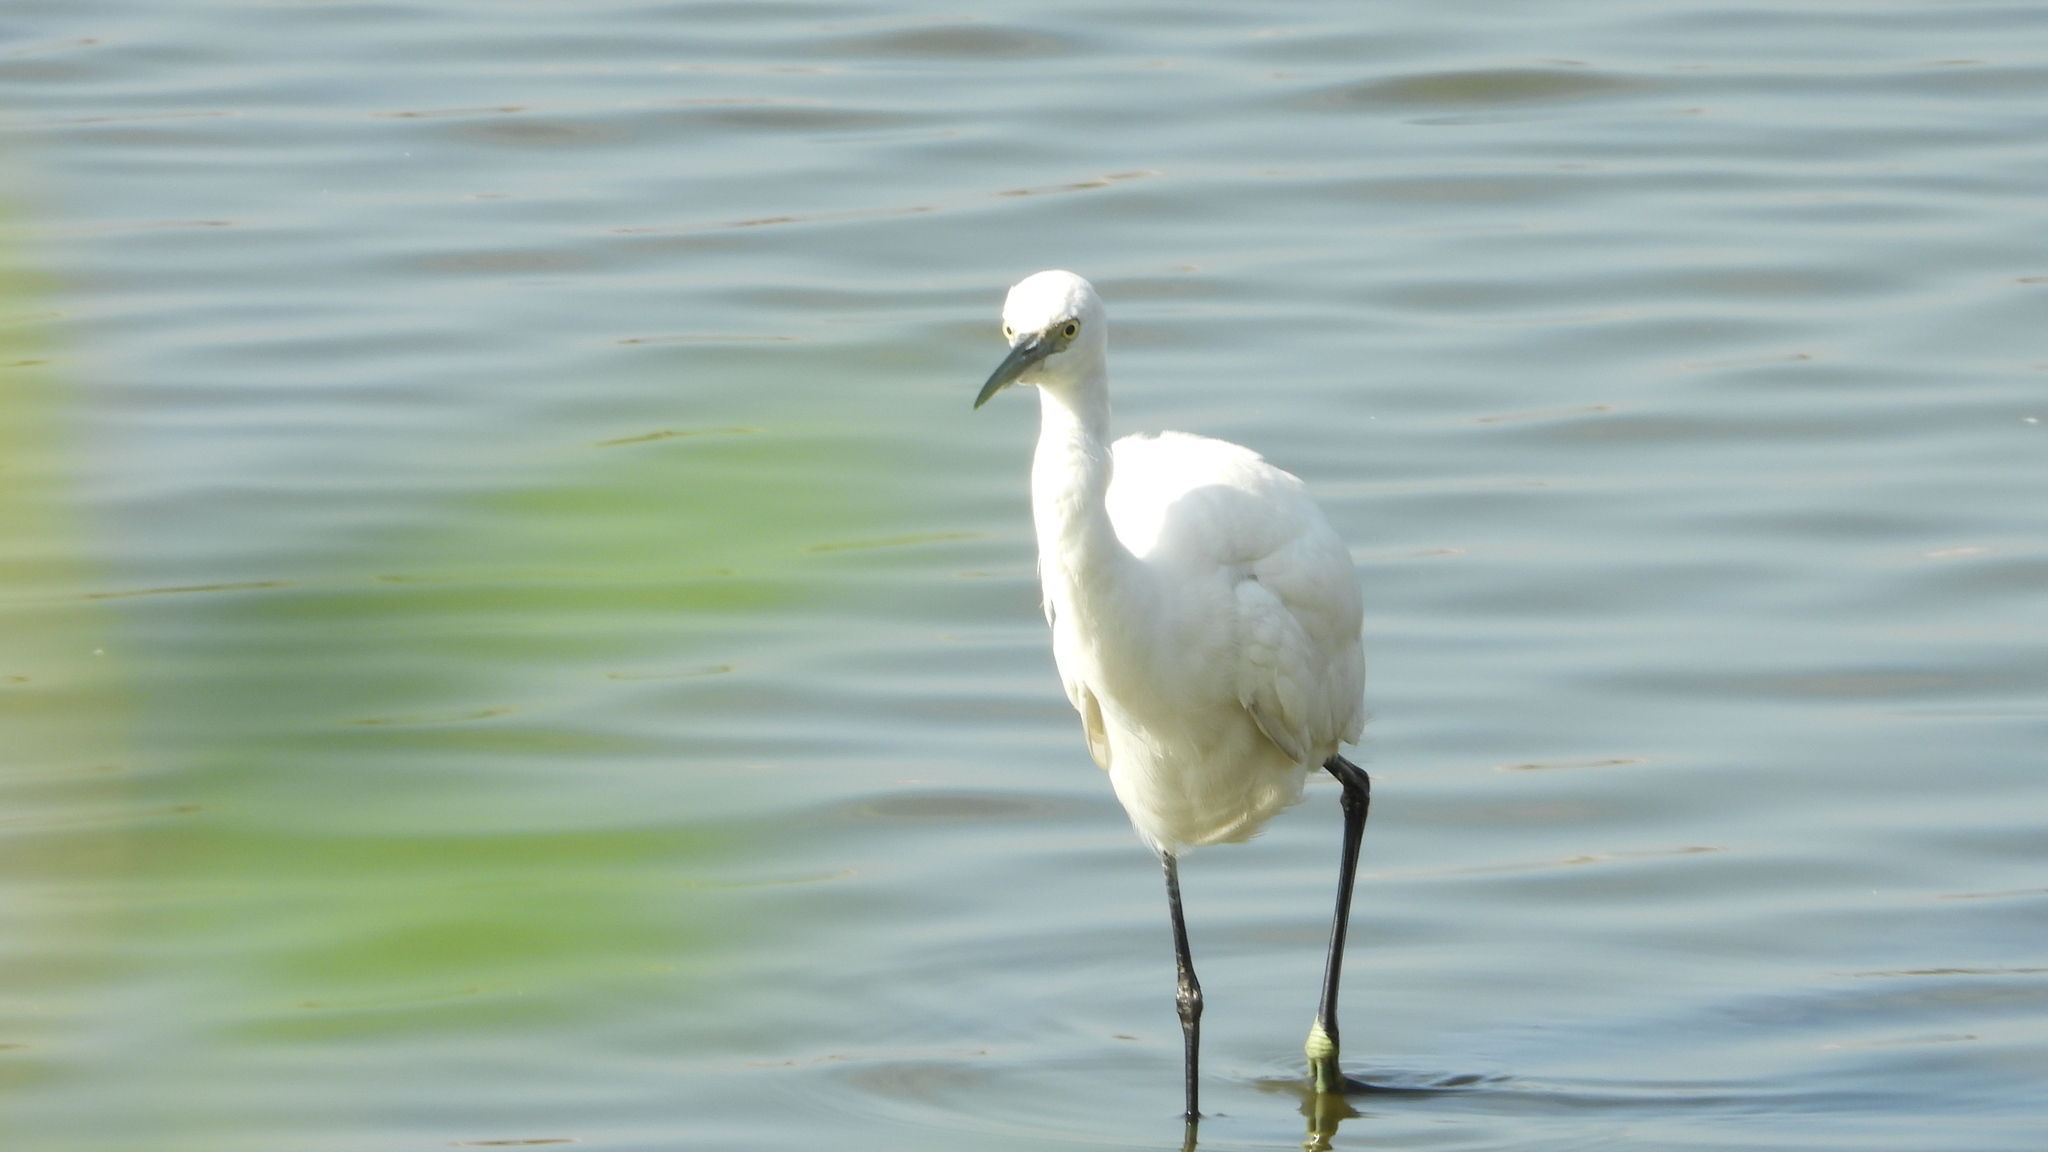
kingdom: Animalia
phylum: Chordata
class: Aves
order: Pelecaniformes
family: Ardeidae
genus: Egretta
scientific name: Egretta garzetta
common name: Little egret
